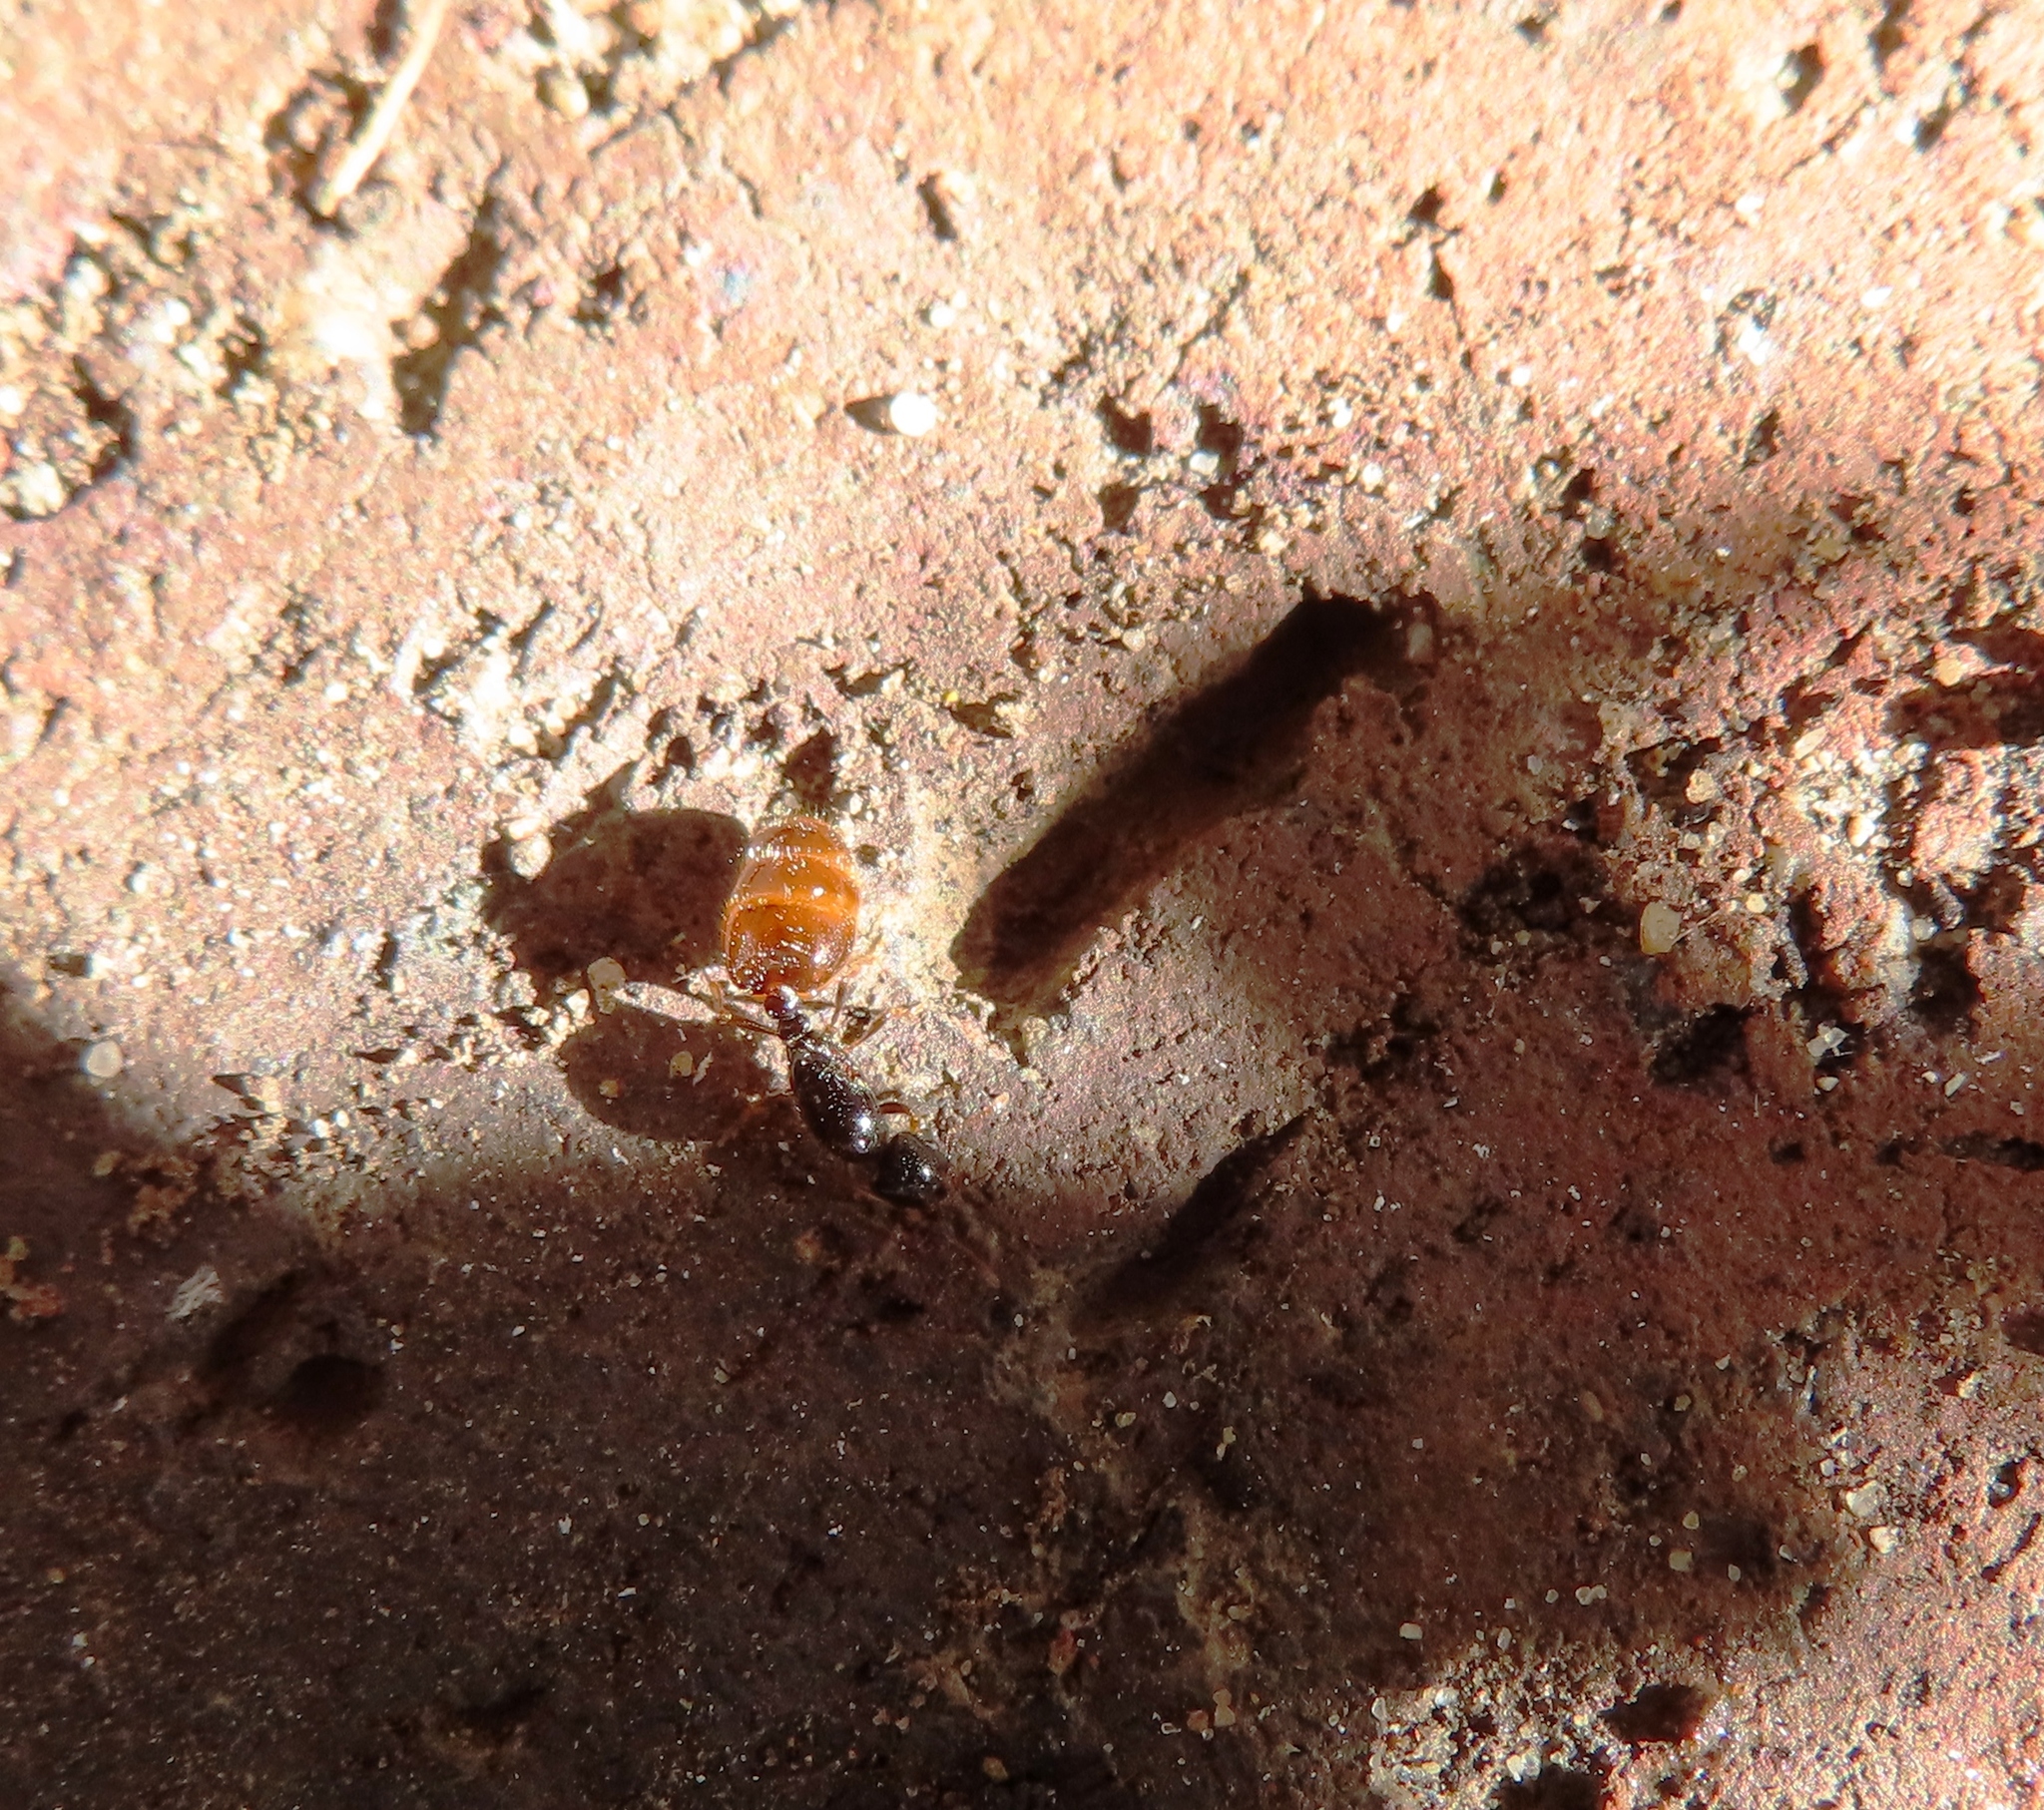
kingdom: Animalia
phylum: Arthropoda
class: Insecta
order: Hymenoptera
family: Formicidae
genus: Solenopsis
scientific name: Solenopsis punctaticeps
